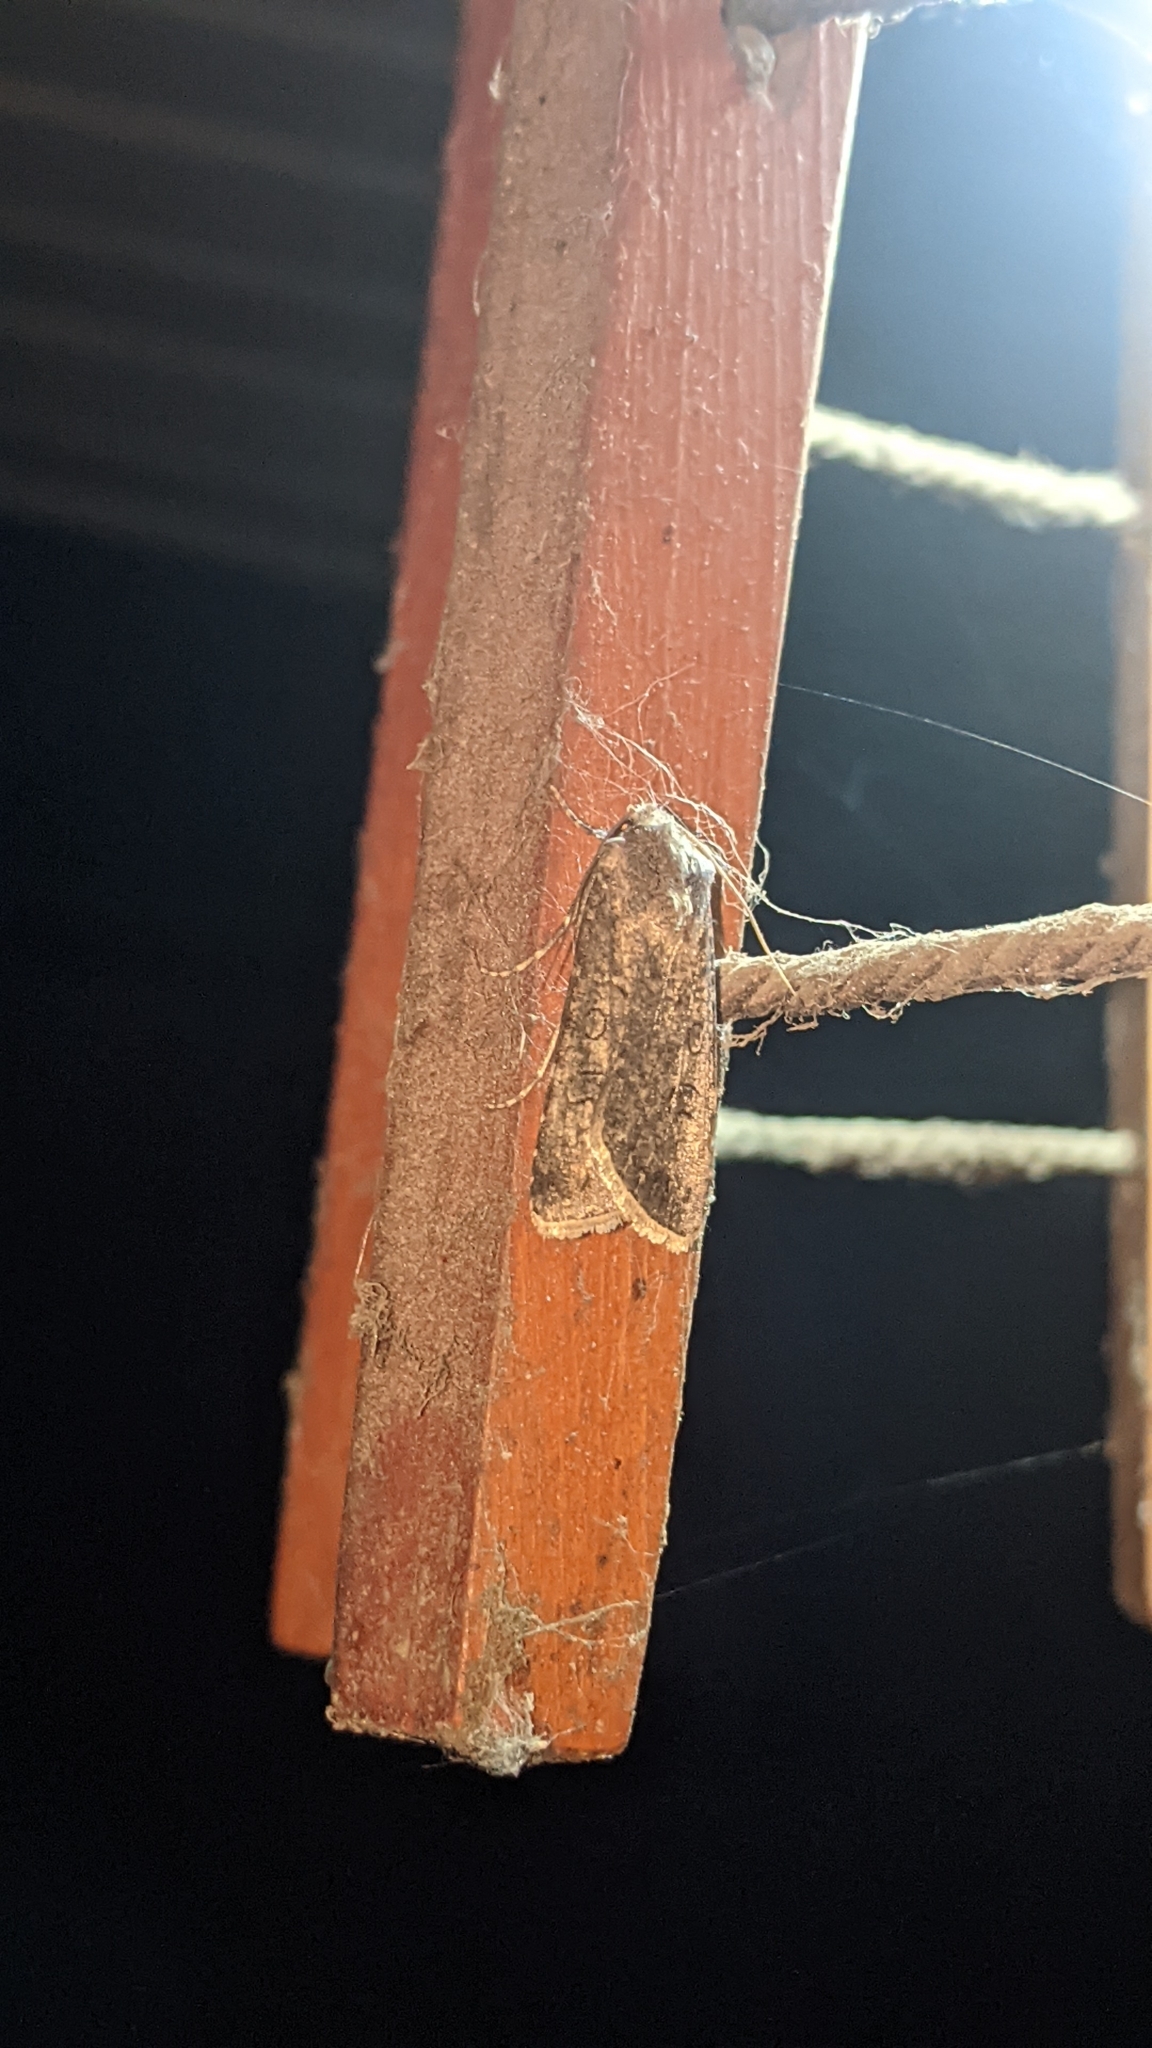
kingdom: Animalia
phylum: Arthropoda
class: Insecta
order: Lepidoptera
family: Noctuidae
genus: Agrotis
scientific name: Agrotis segetum
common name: Turnip moth
